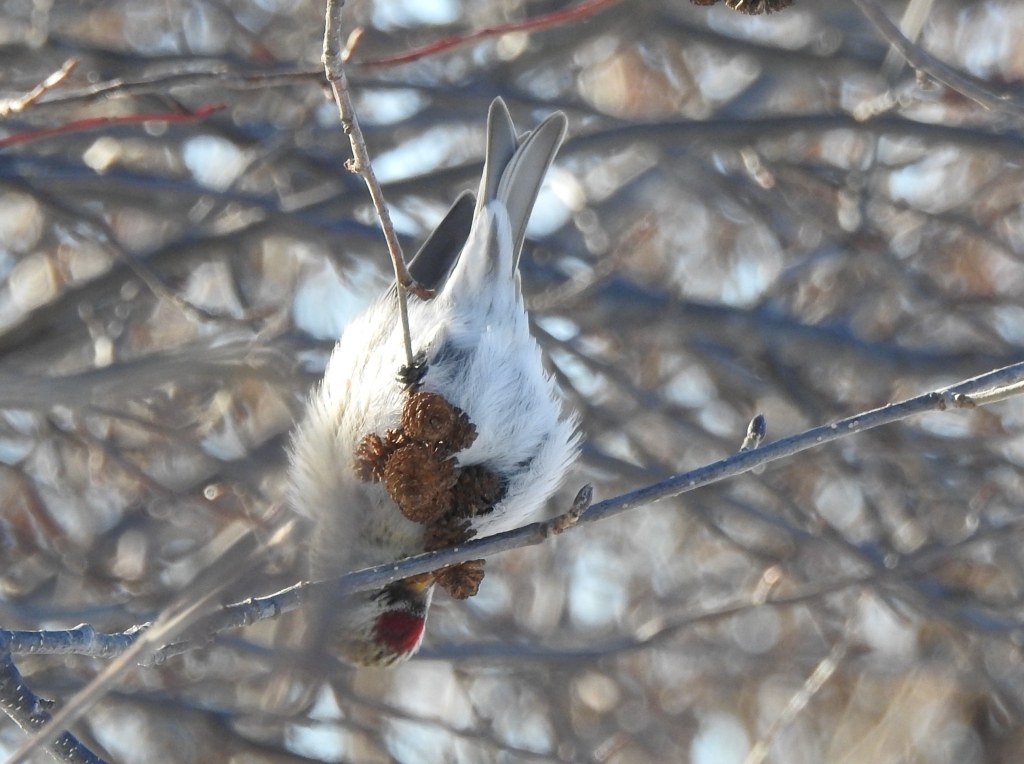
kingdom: Animalia
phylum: Chordata
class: Aves
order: Passeriformes
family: Fringillidae
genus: Acanthis
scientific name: Acanthis flammea
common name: Common redpoll
